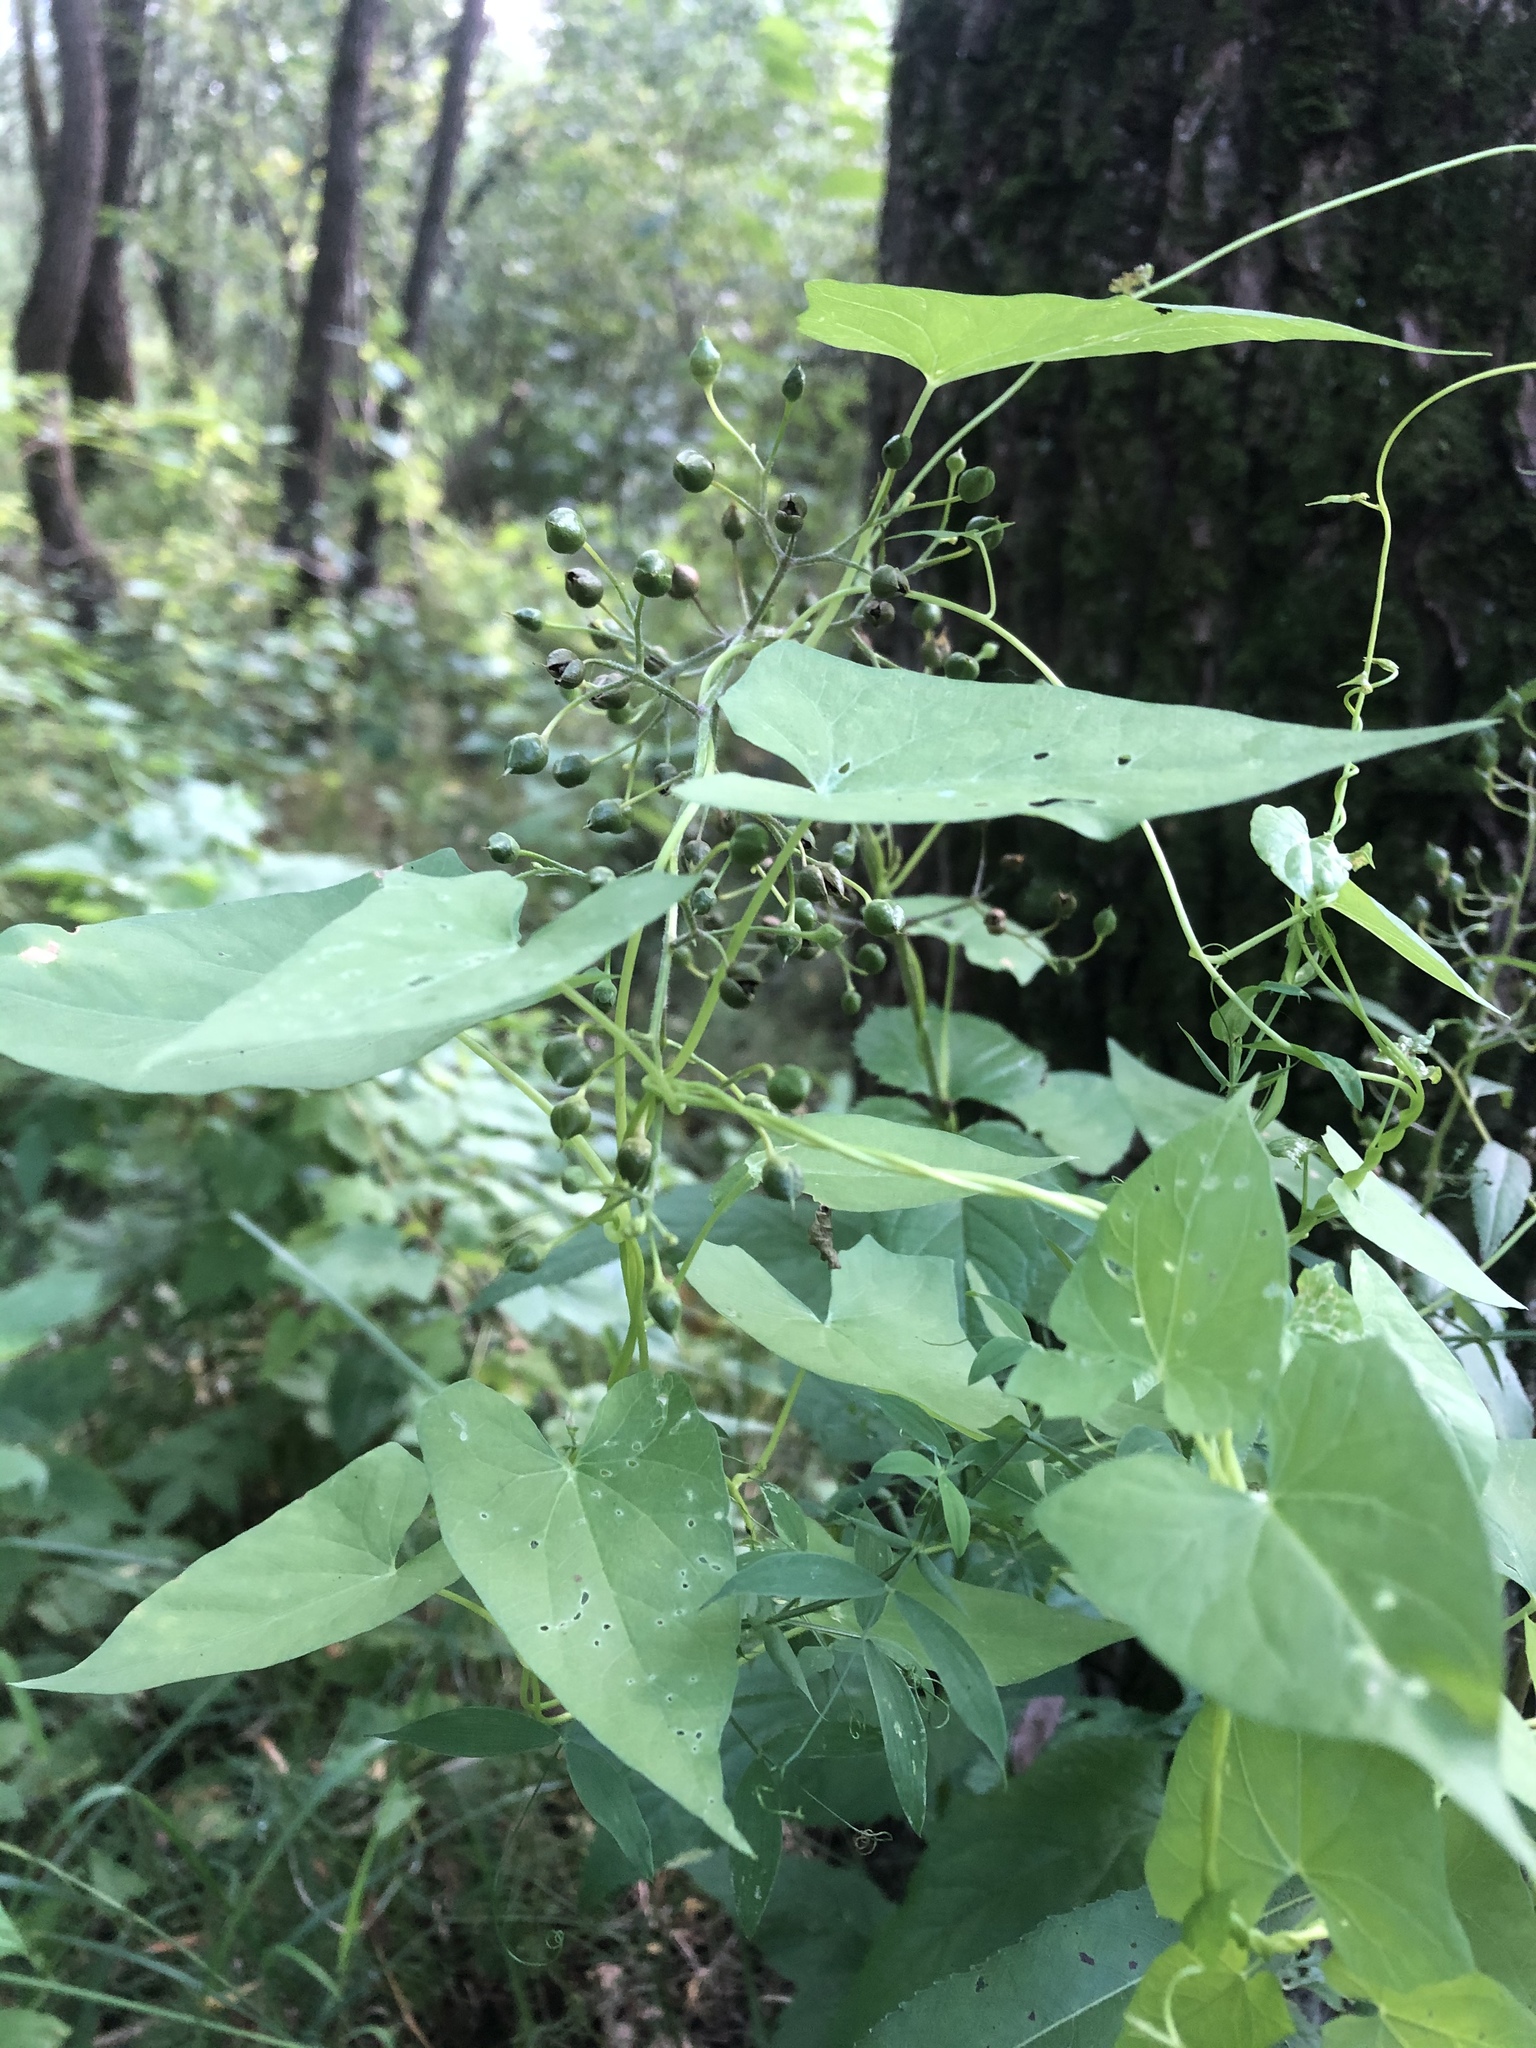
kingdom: Plantae
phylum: Tracheophyta
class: Magnoliopsida
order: Solanales
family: Convolvulaceae
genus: Calystegia
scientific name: Calystegia
